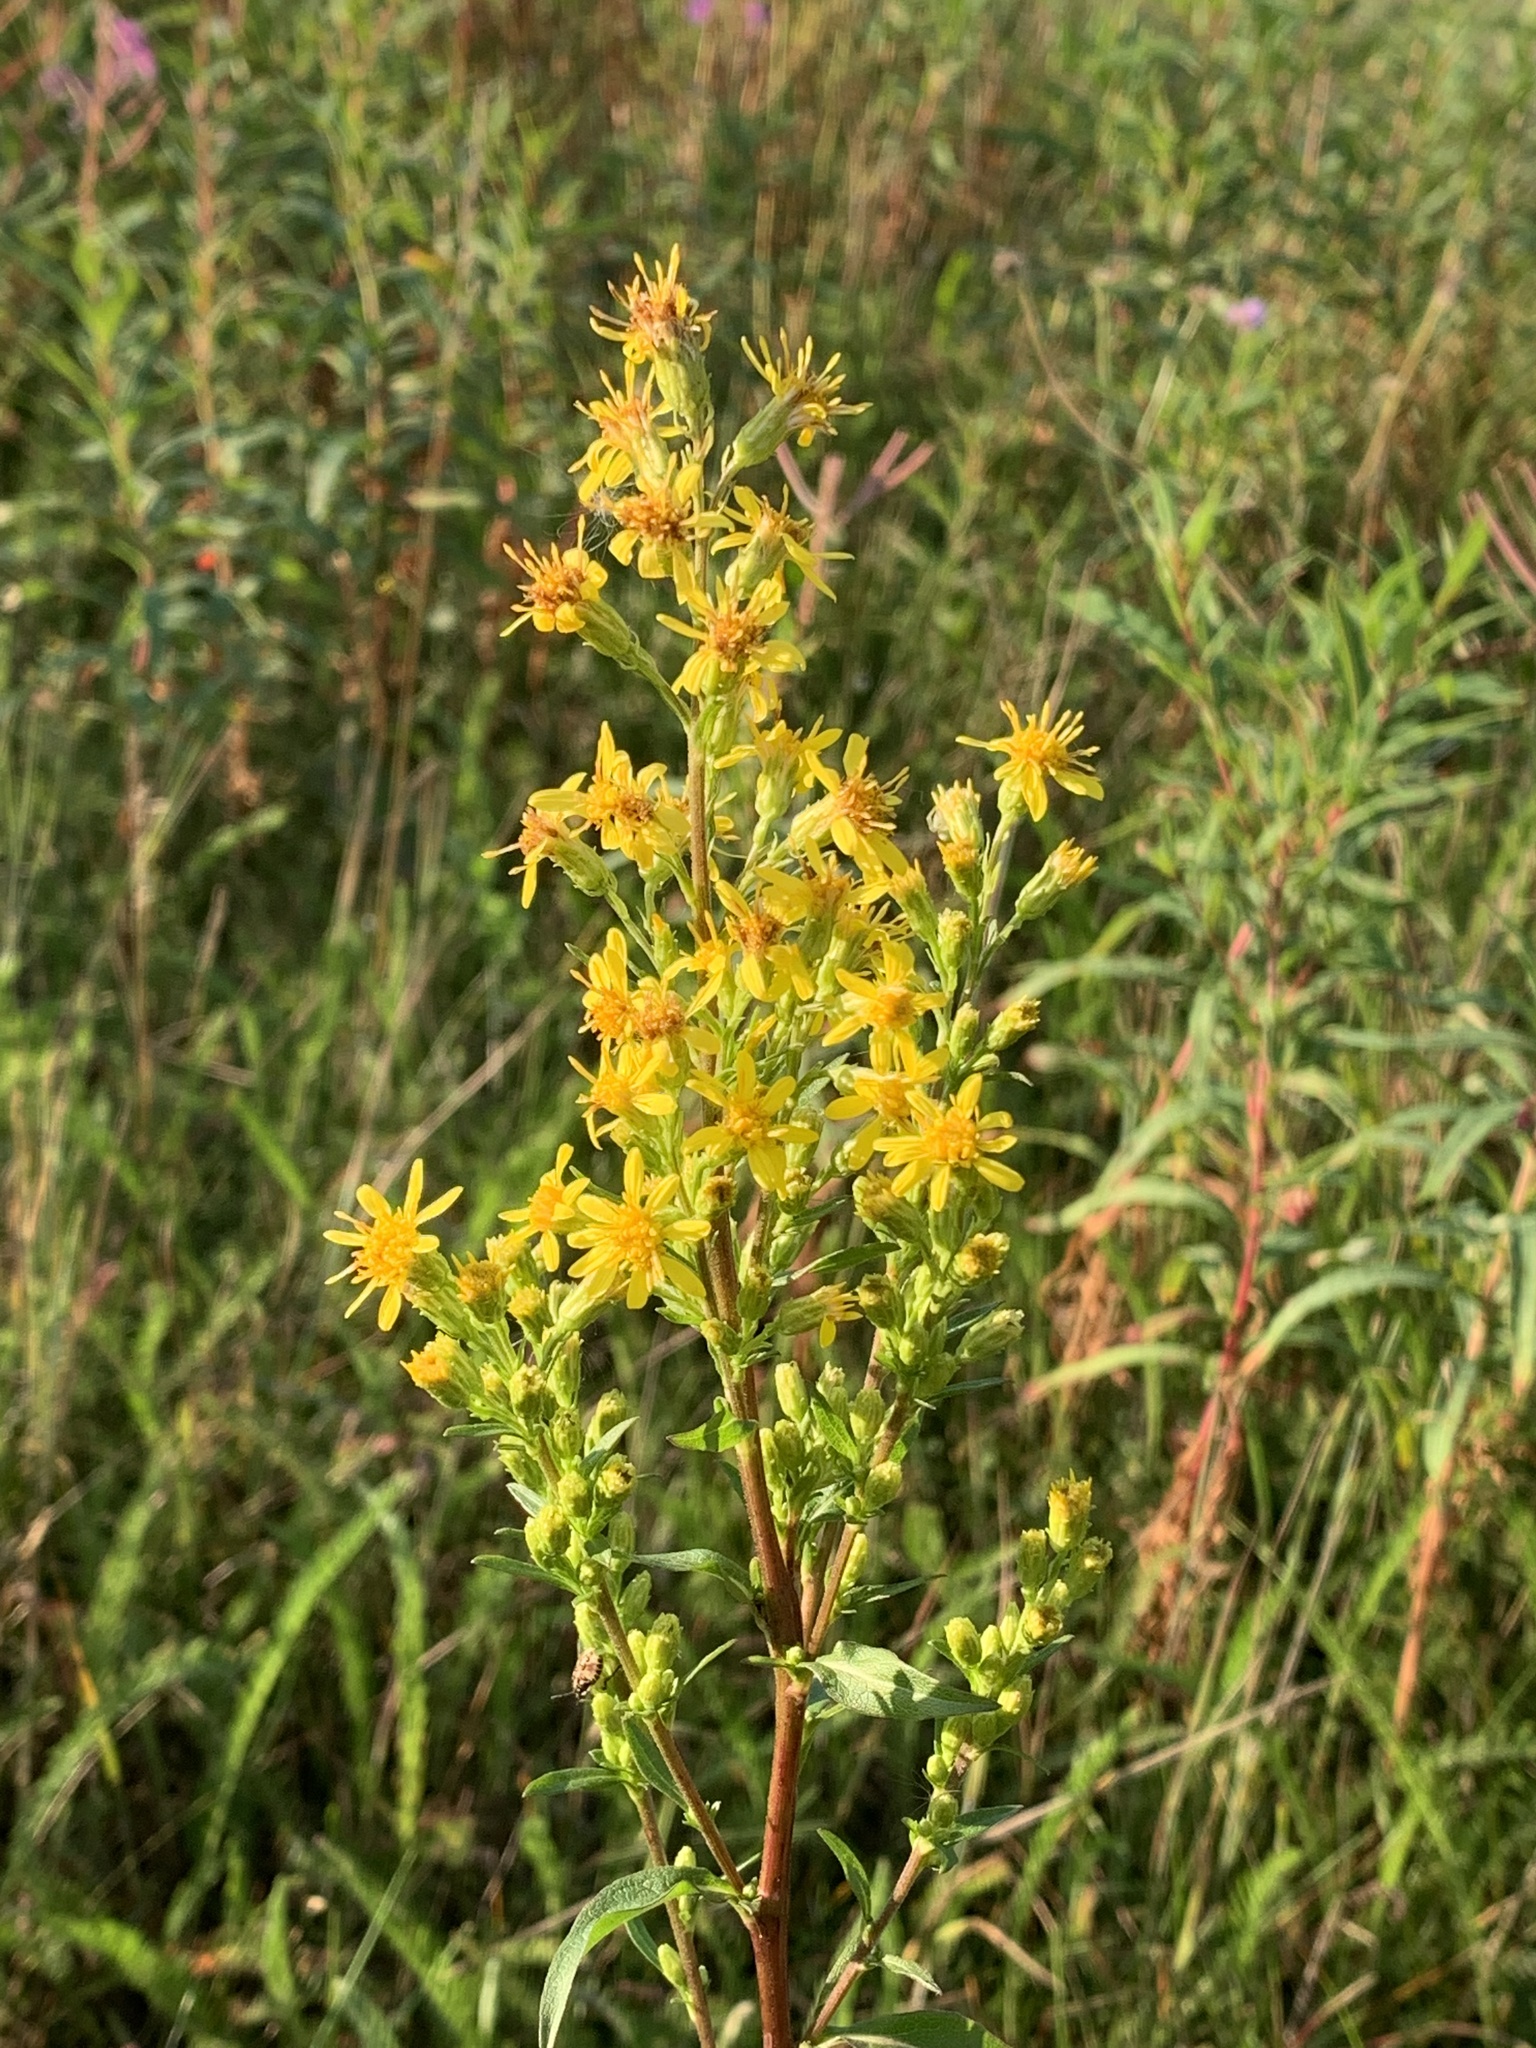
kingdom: Plantae
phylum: Tracheophyta
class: Magnoliopsida
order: Asterales
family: Asteraceae
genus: Solidago
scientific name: Solidago virgaurea
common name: Goldenrod
